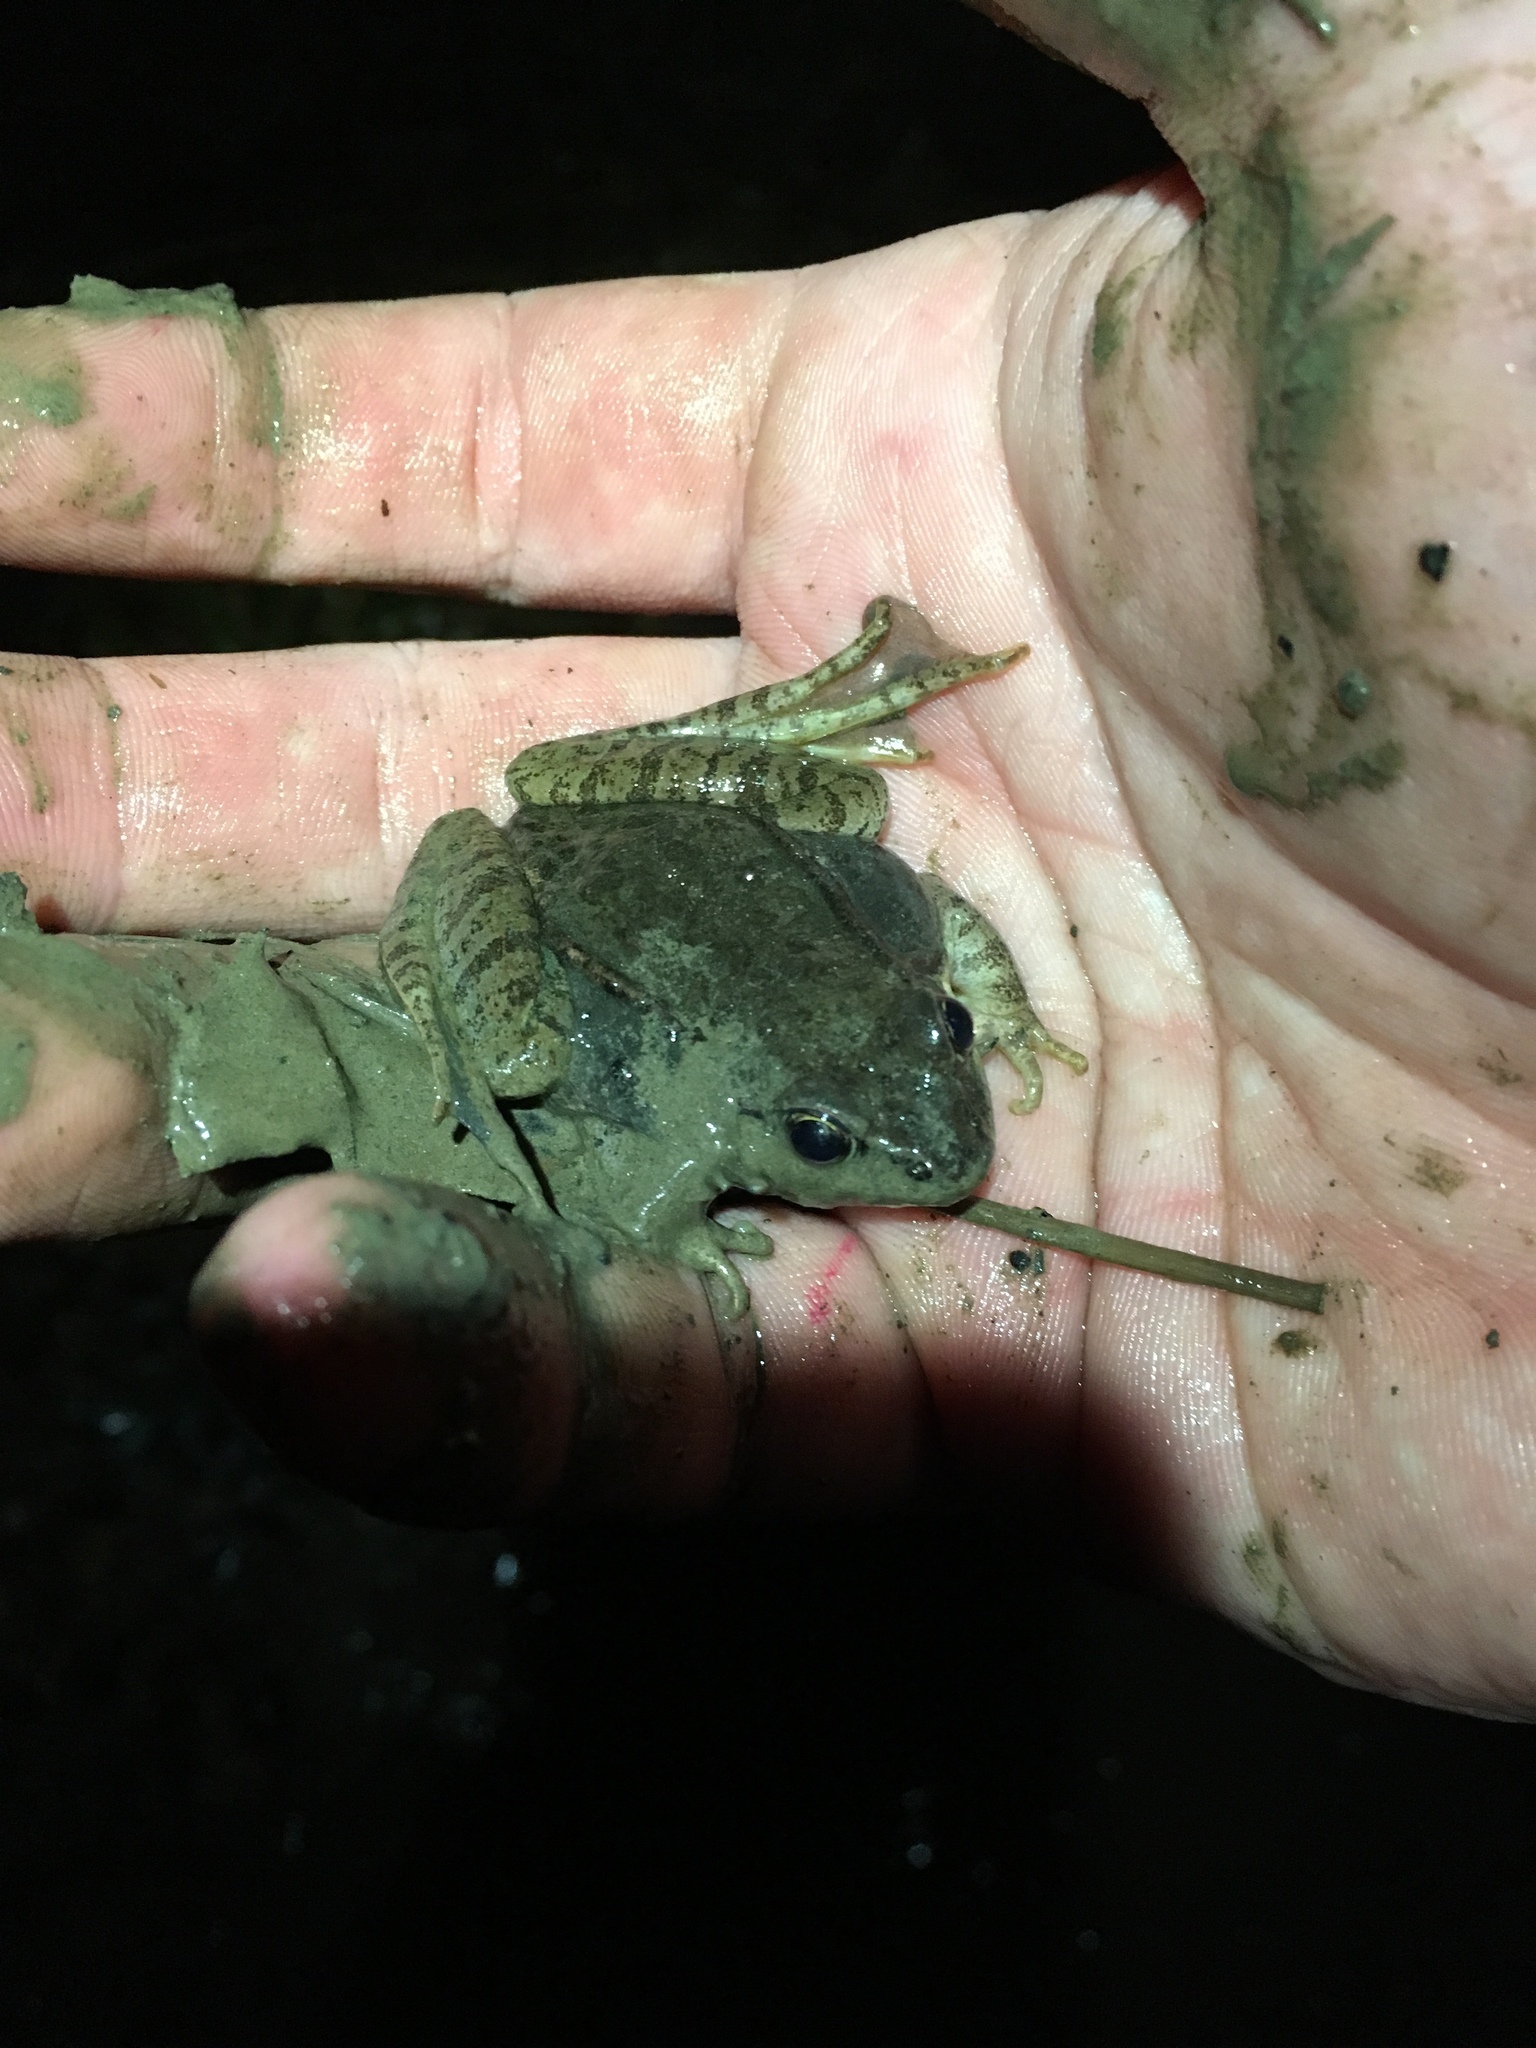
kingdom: Animalia
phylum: Chordata
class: Amphibia
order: Anura
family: Ranidae
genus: Lithobates
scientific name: Lithobates sylvaticus
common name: Wood frog
